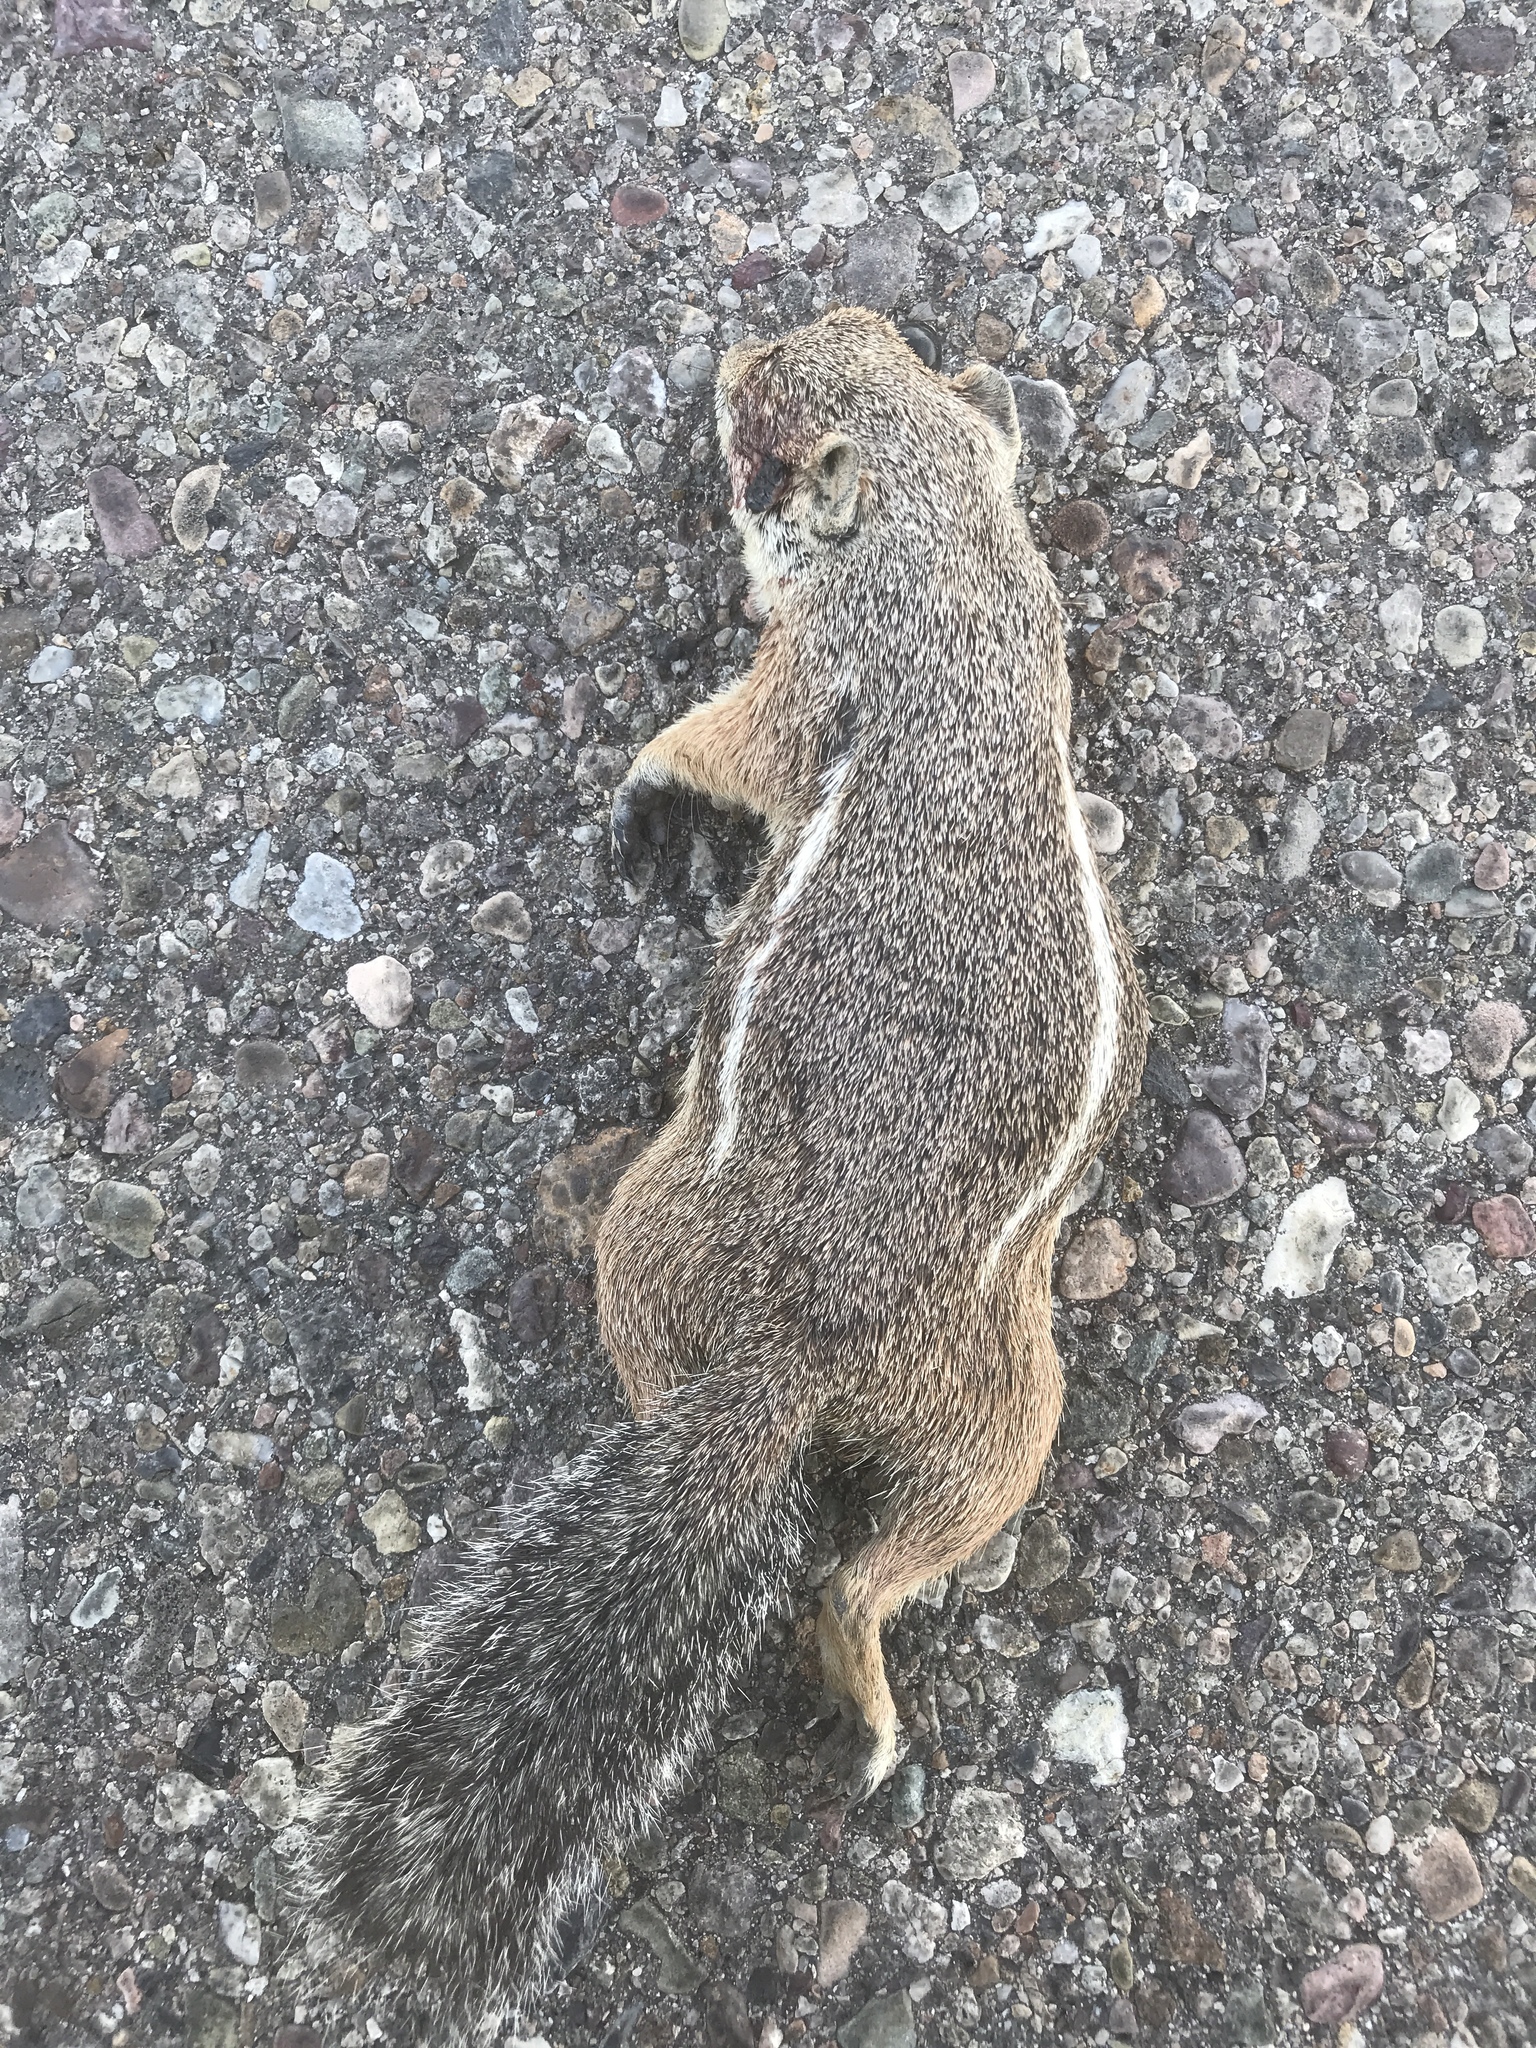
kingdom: Animalia
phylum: Chordata
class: Mammalia
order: Rodentia
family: Sciuridae
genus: Ammospermophilus
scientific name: Ammospermophilus harrisii
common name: Harris's antelope squirrel
